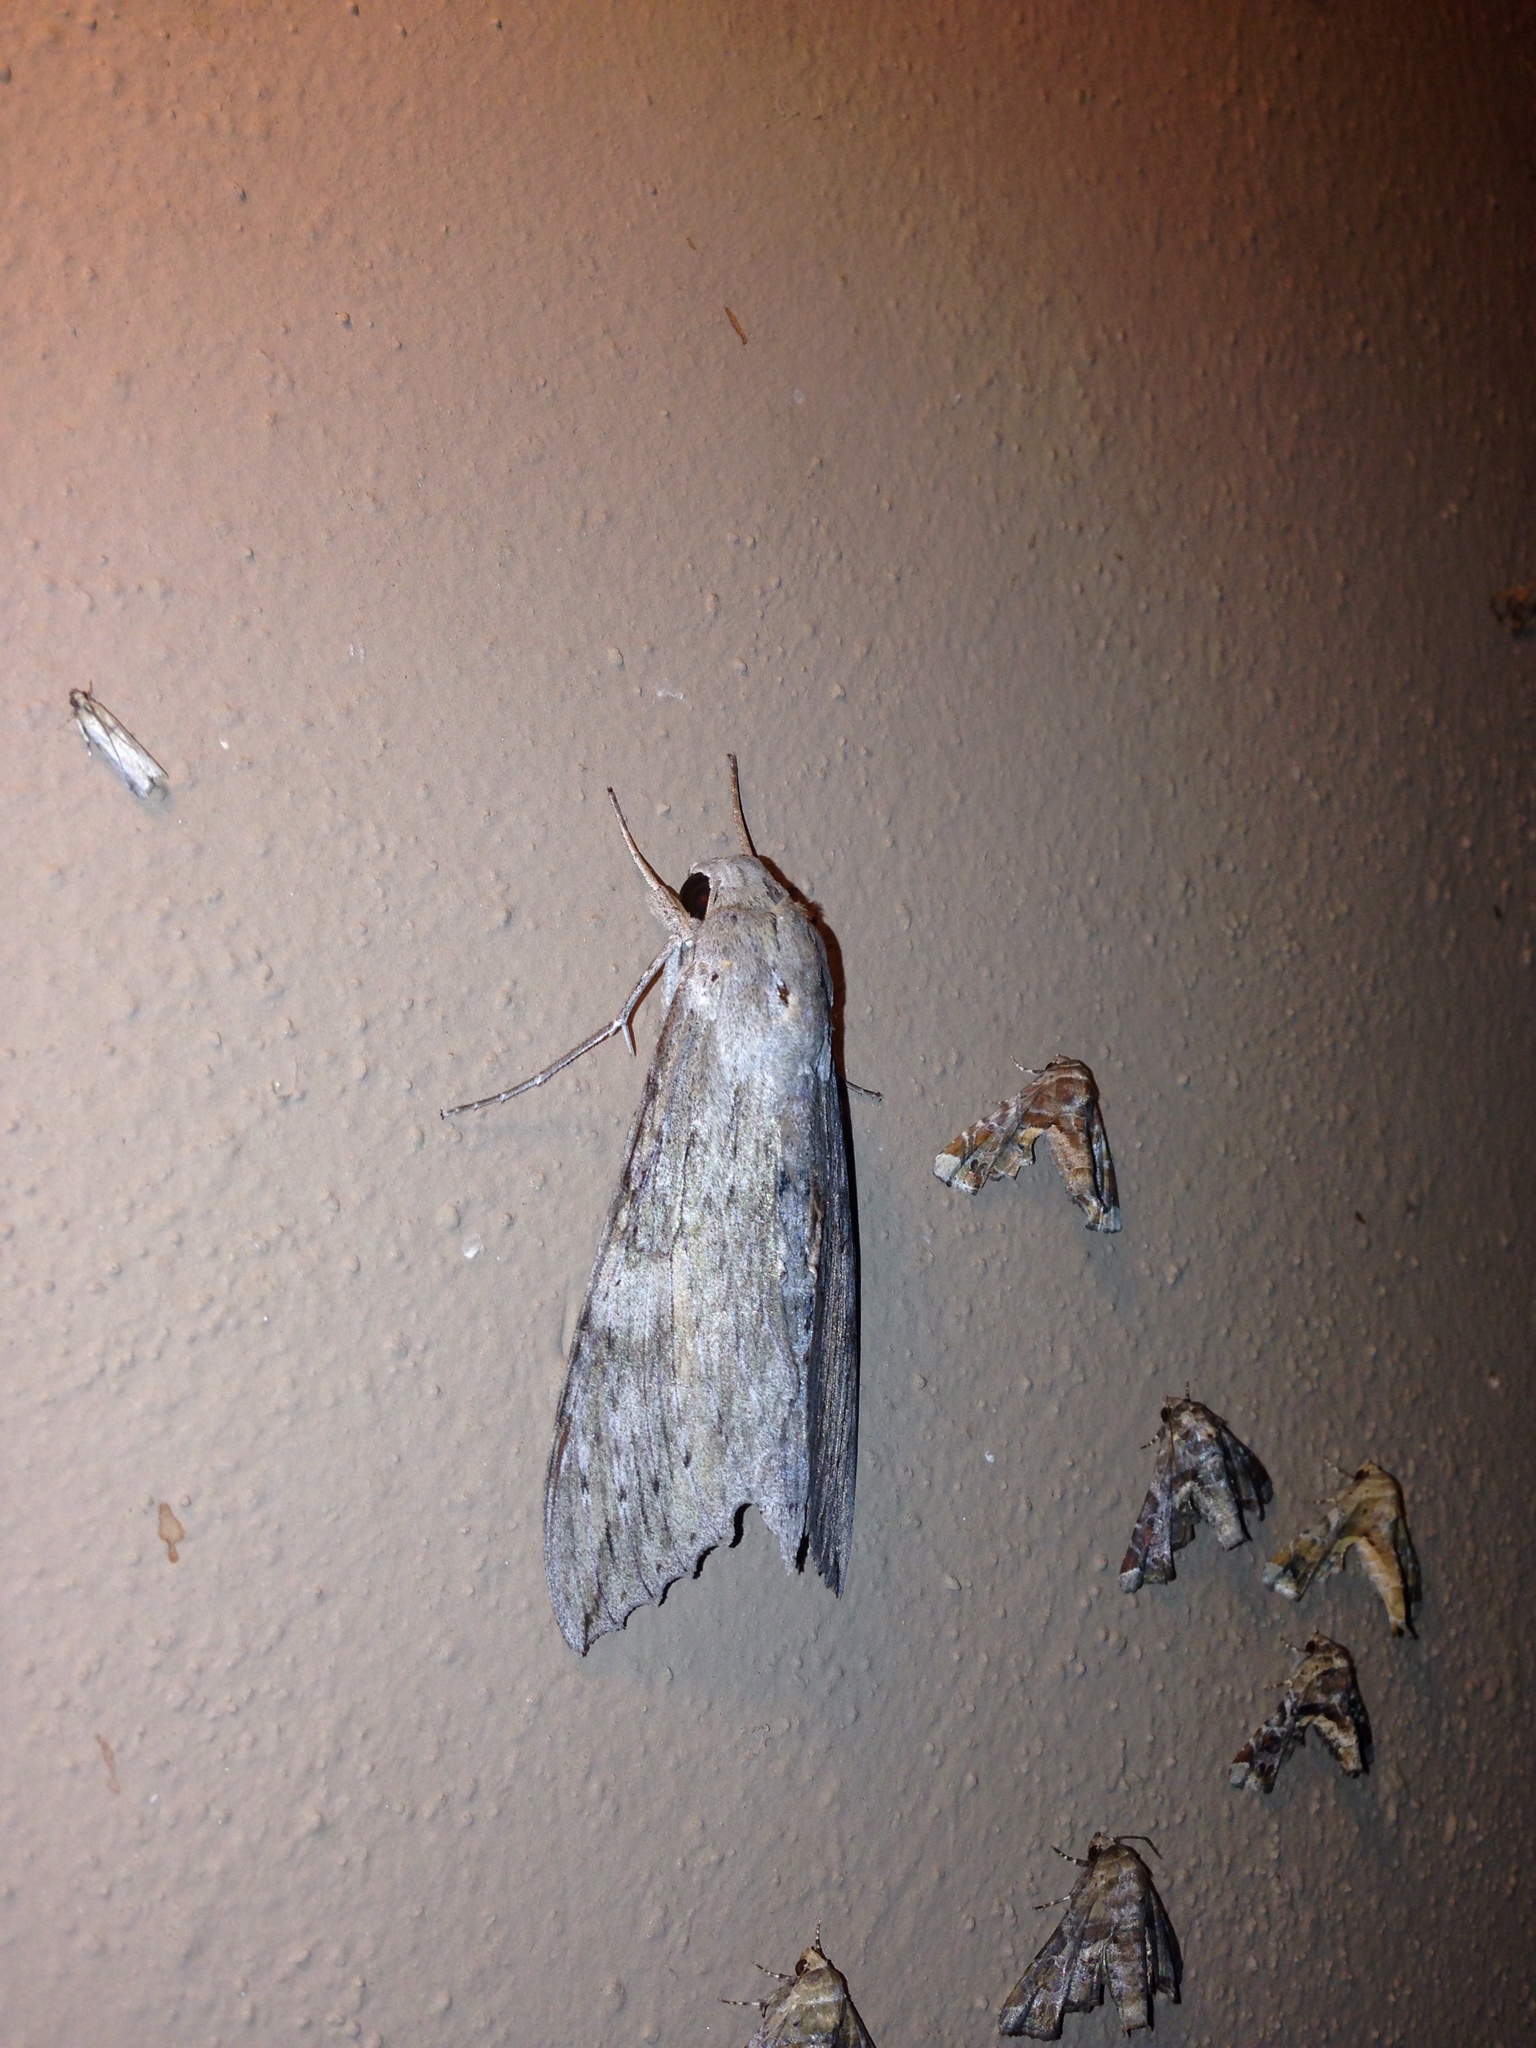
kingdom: Animalia
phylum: Arthropoda
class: Insecta
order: Lepidoptera
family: Sphingidae
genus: Erinnyis
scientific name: Erinnyis ello
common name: Ello sphinx
